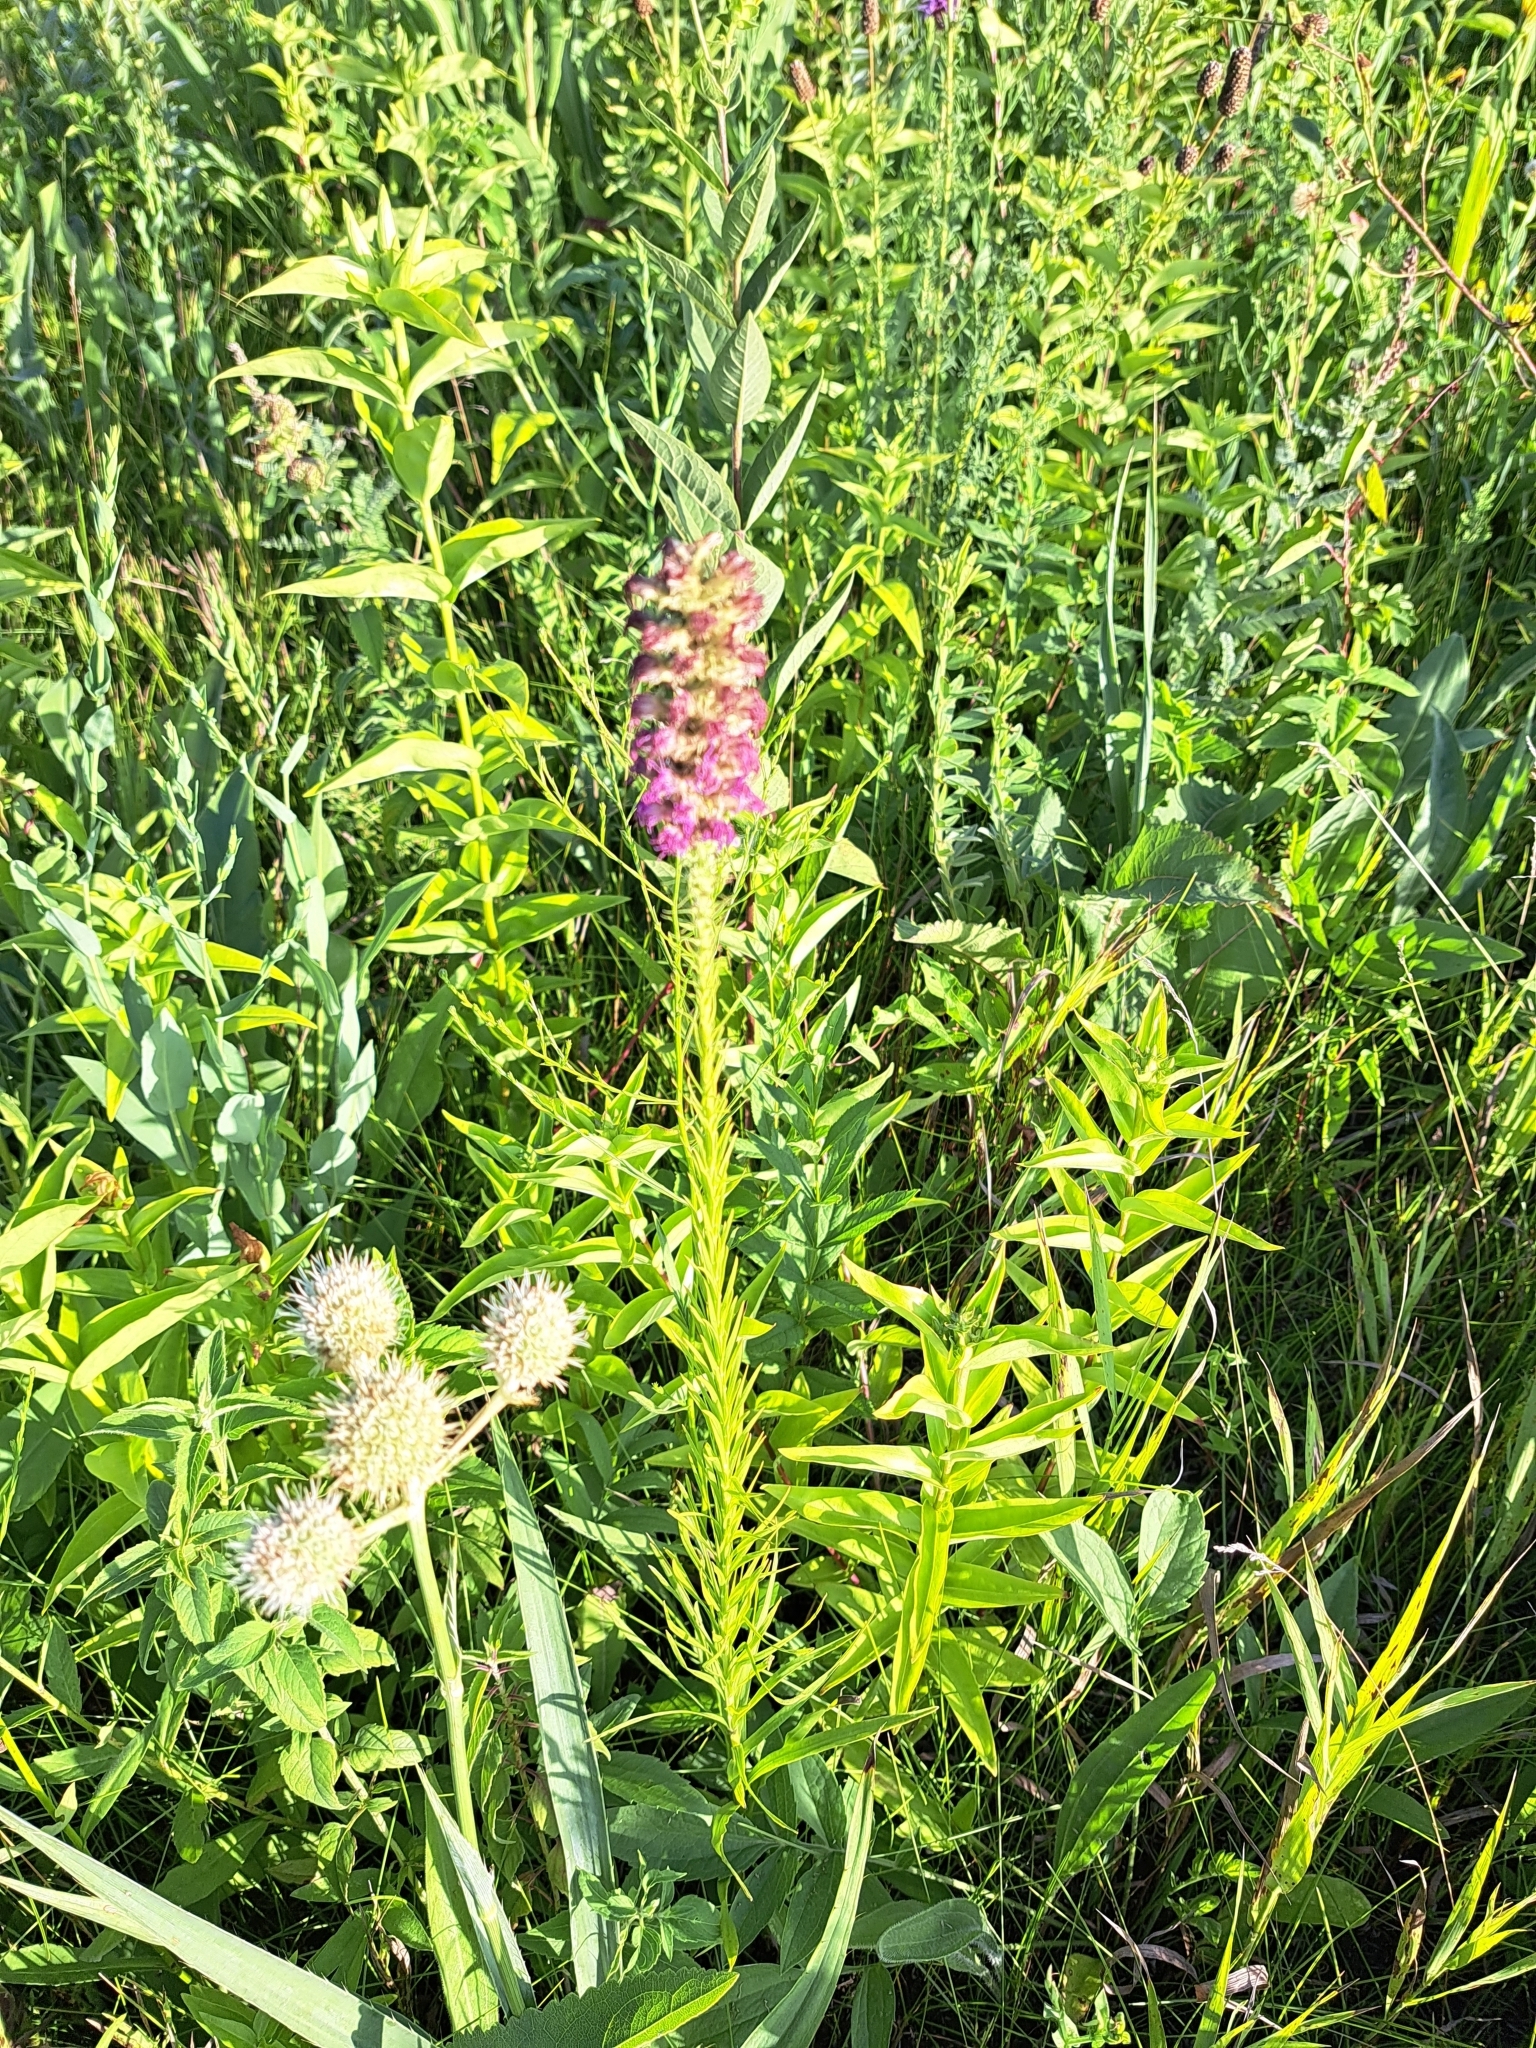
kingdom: Plantae
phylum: Tracheophyta
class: Magnoliopsida
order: Asterales
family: Asteraceae
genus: Liatris
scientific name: Liatris pycnostachya
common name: Cattail gayfeather
